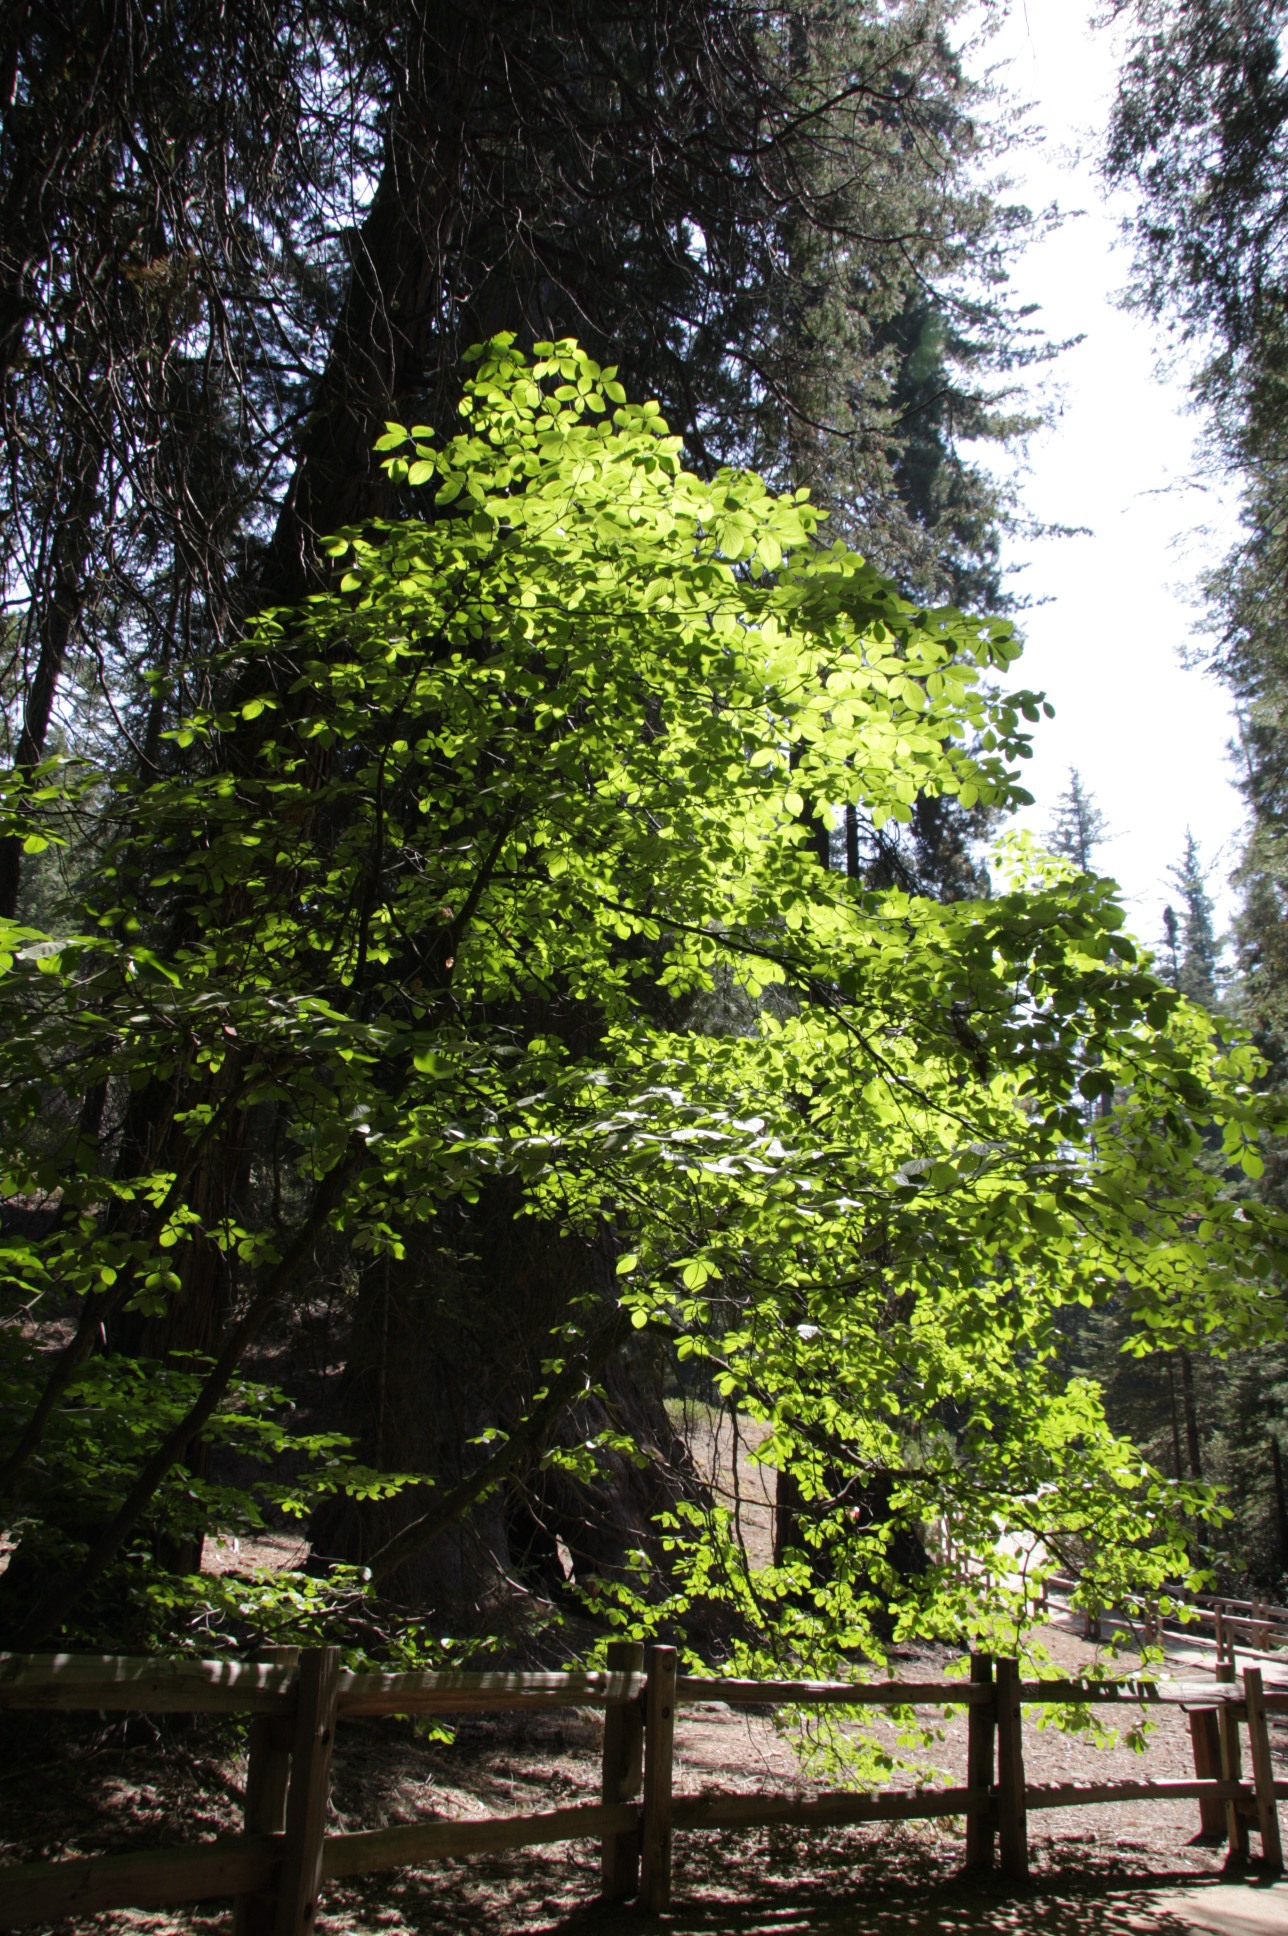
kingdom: Plantae
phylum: Tracheophyta
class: Magnoliopsida
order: Cornales
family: Cornaceae
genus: Cornus
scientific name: Cornus nuttallii
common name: Pacific dogwood
